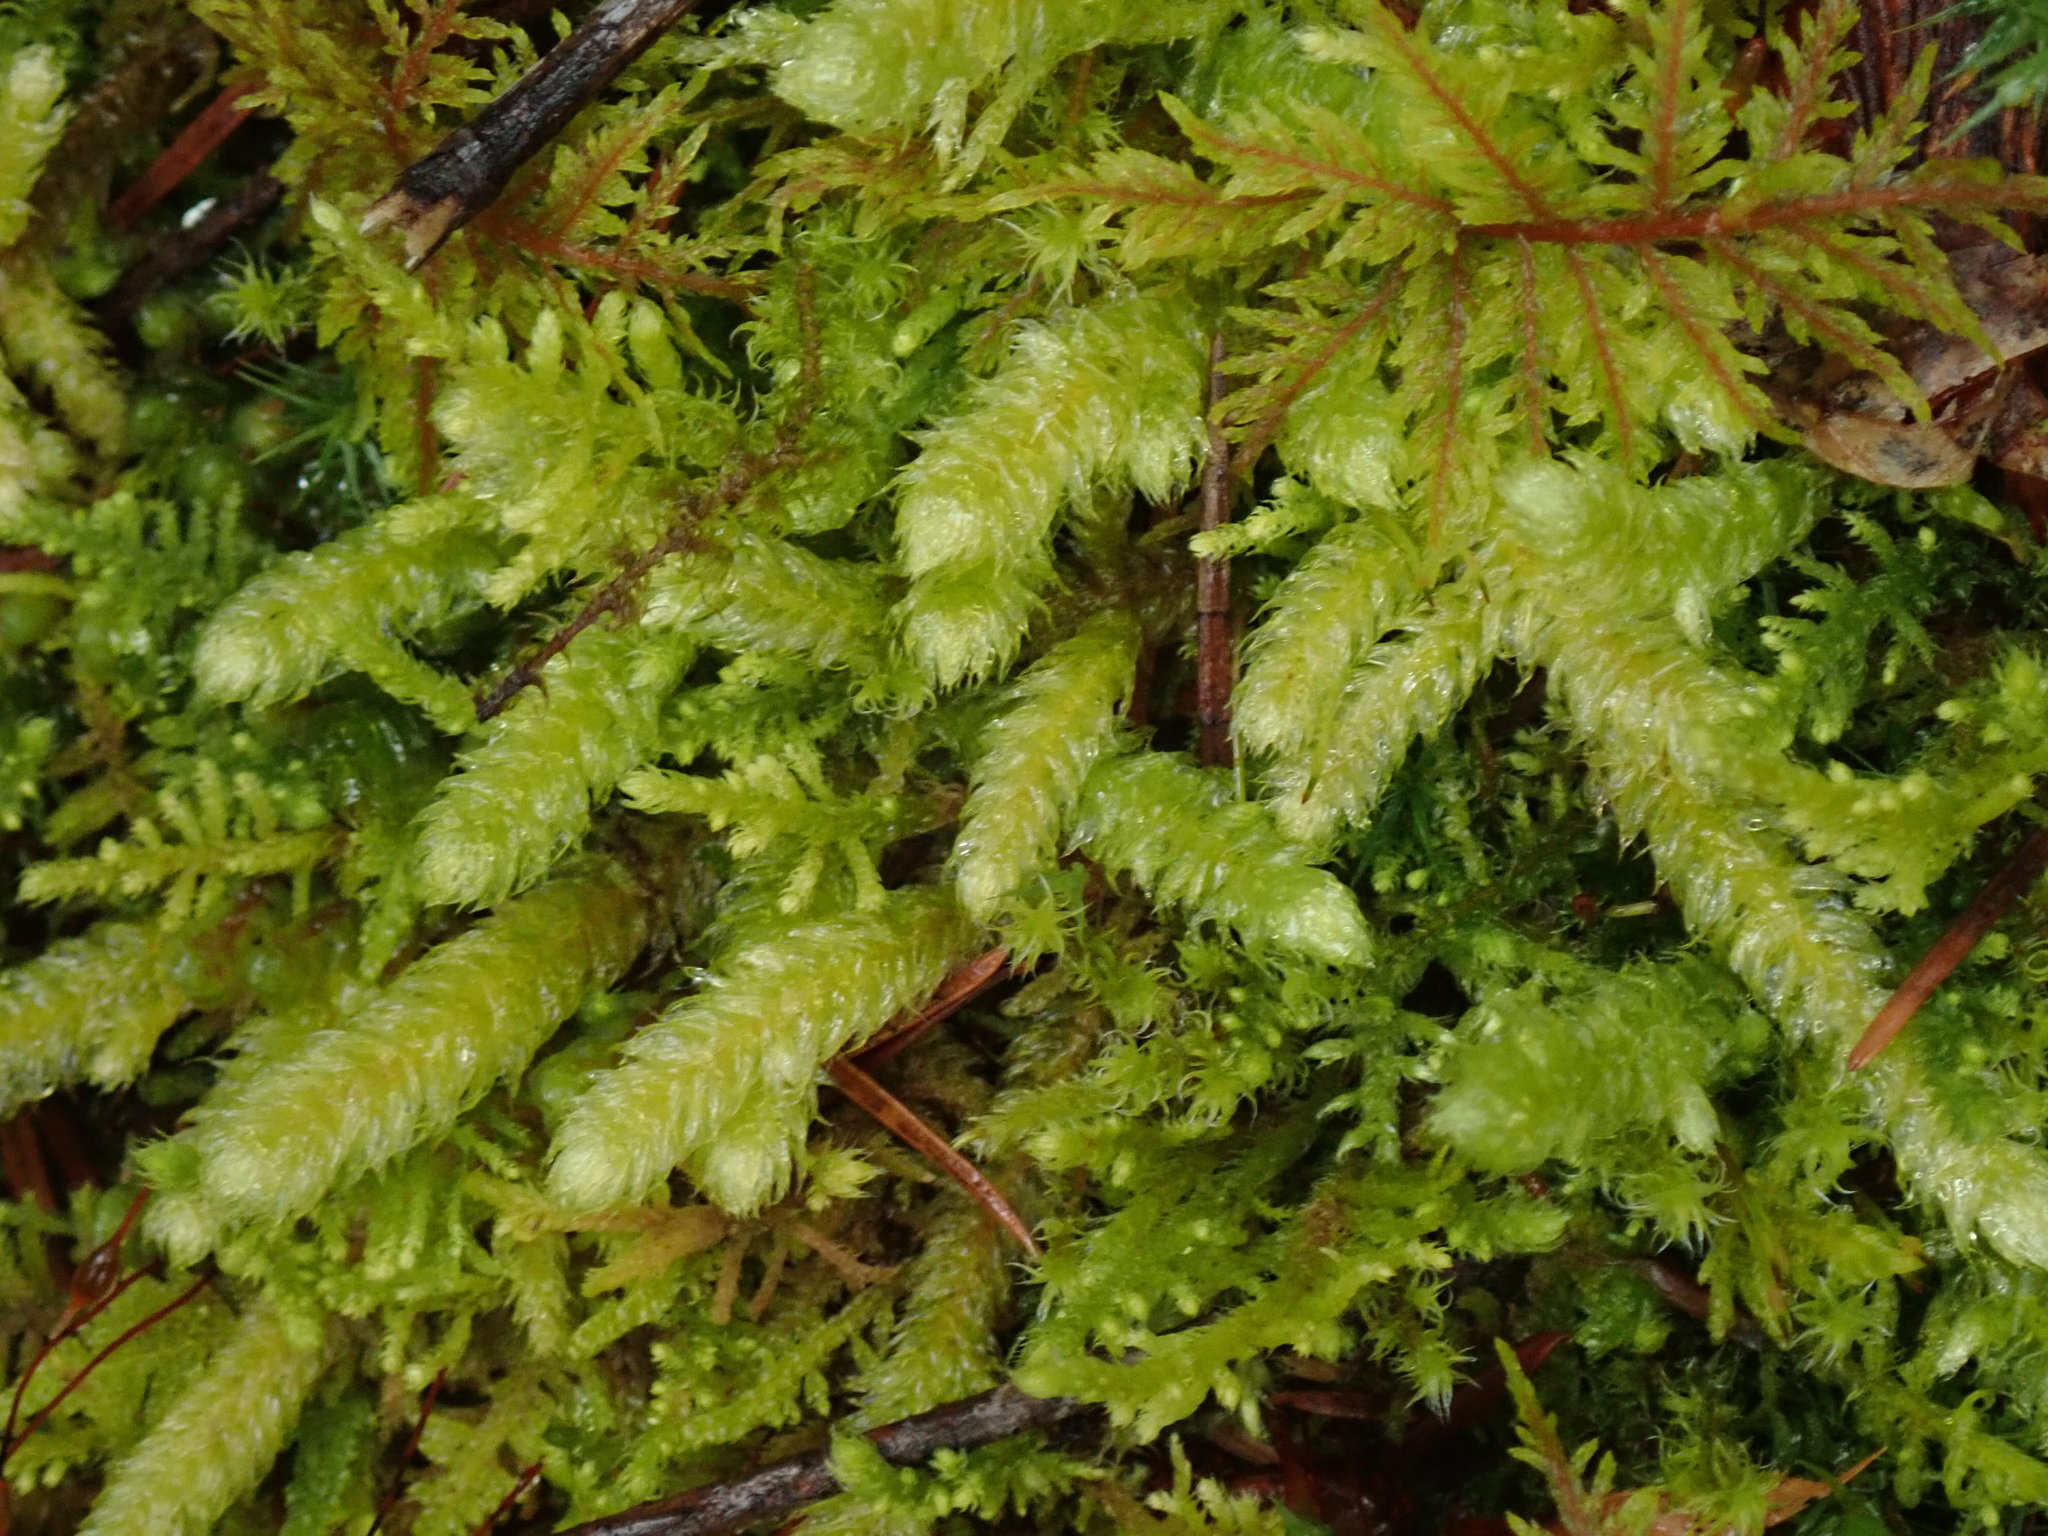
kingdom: Plantae
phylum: Bryophyta
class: Bryopsida
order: Hypnales
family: Hylocomiaceae
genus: Rhytidiopsis
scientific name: Rhytidiopsis robusta
